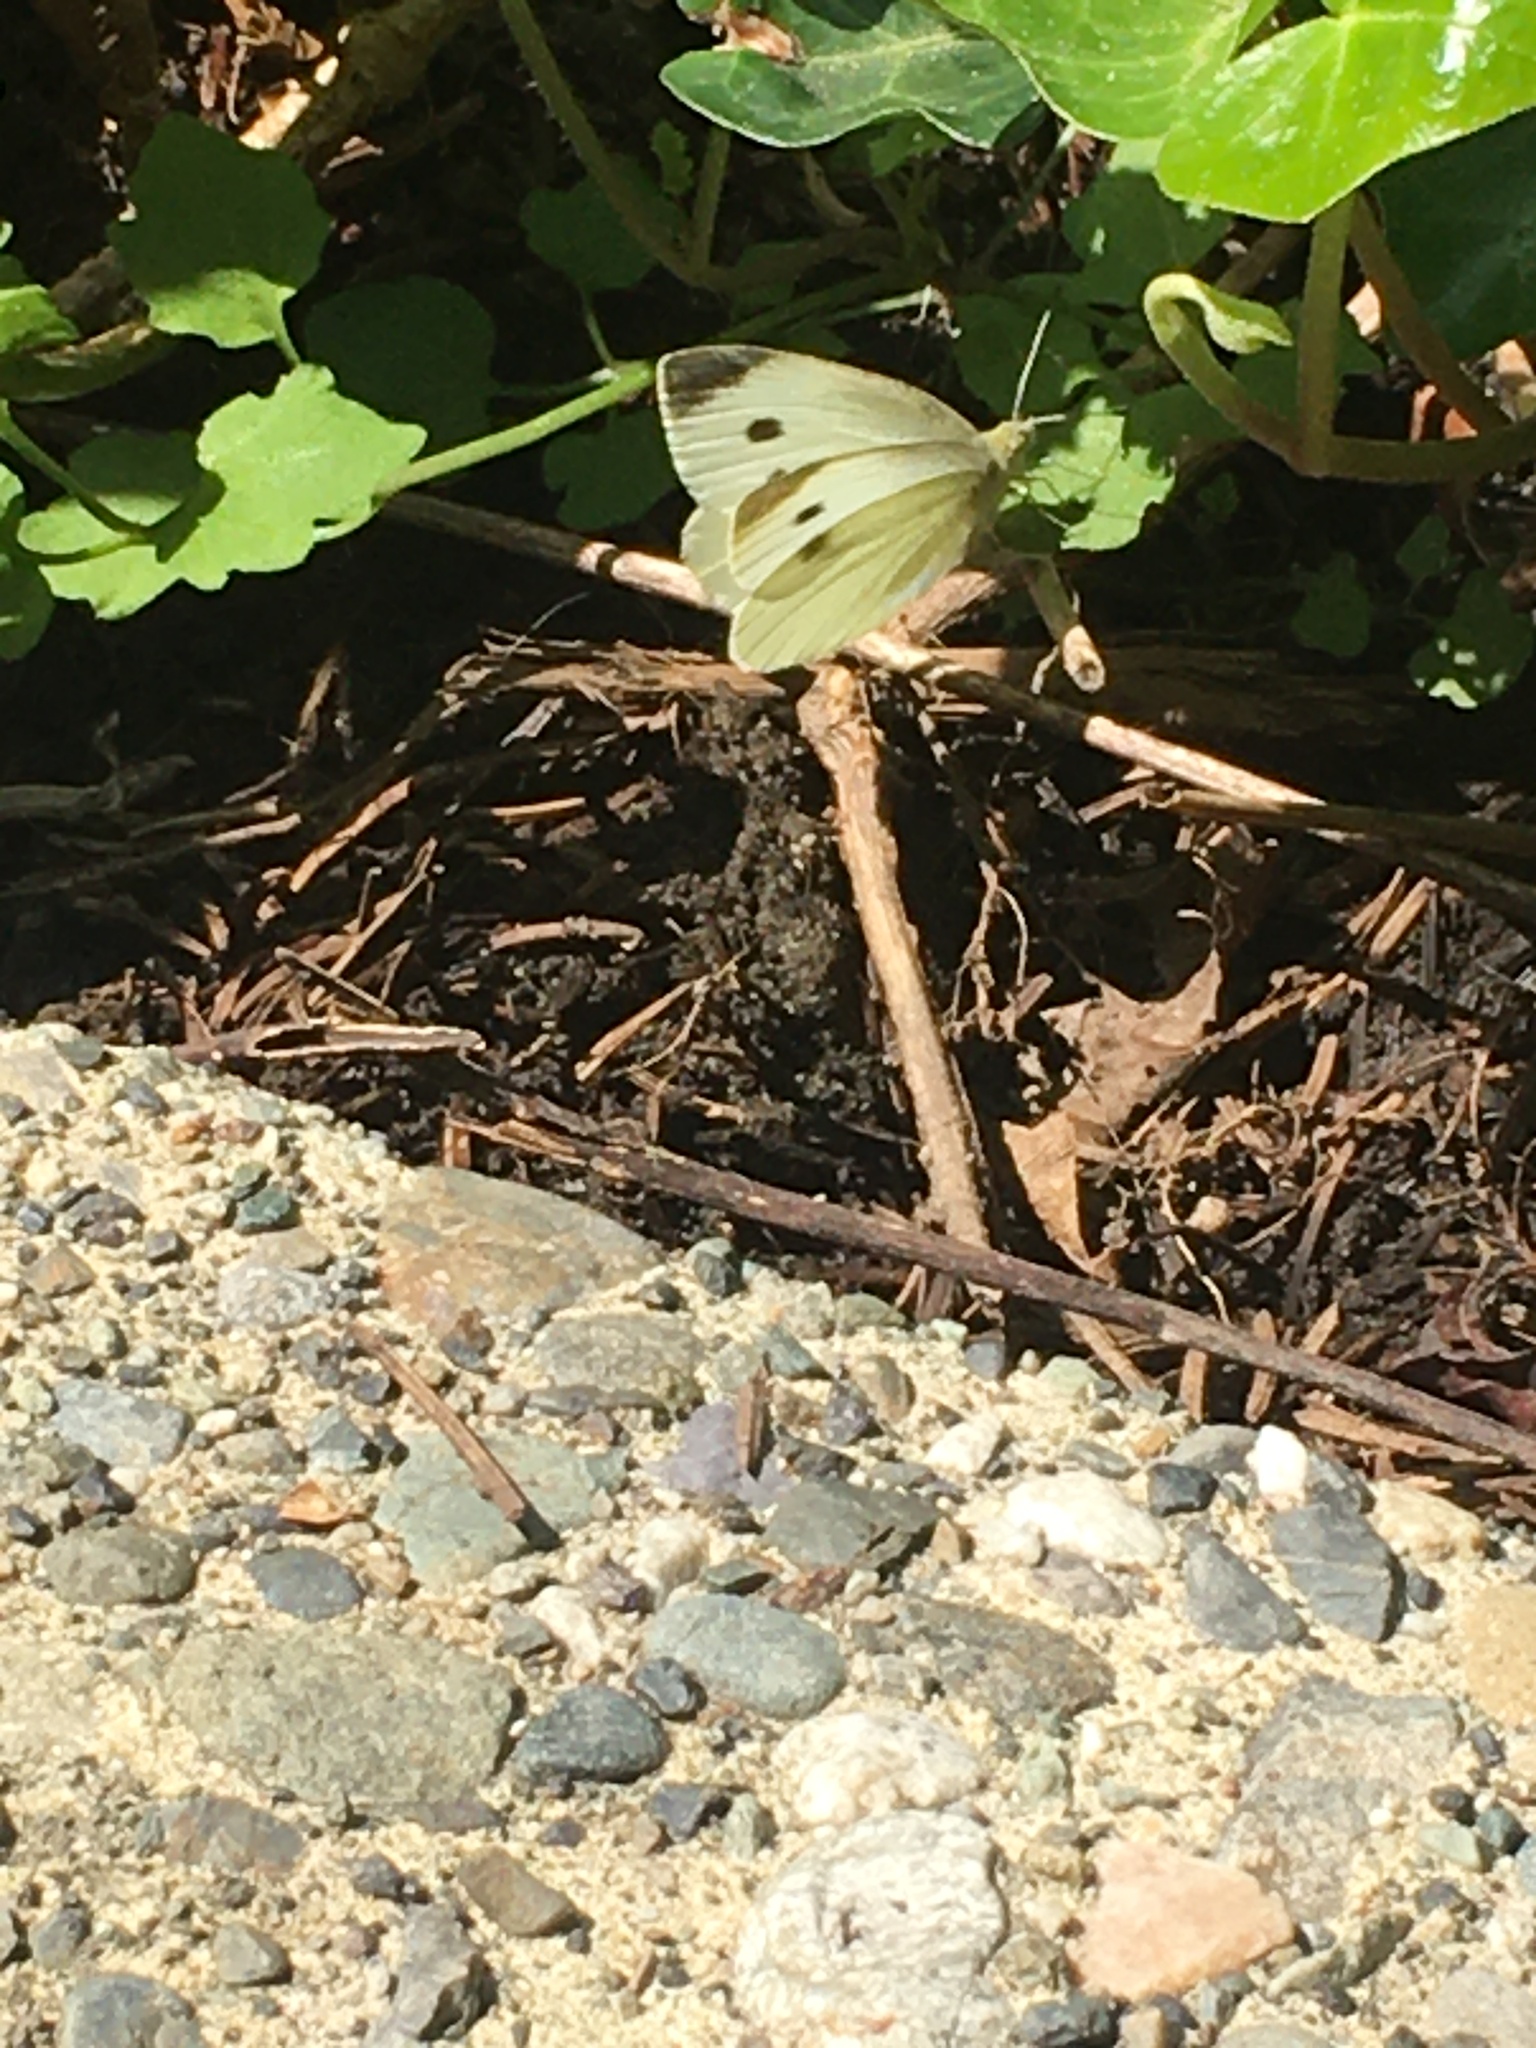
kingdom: Animalia
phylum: Arthropoda
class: Insecta
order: Lepidoptera
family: Pieridae
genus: Pieris
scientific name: Pieris rapae
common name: Small white
